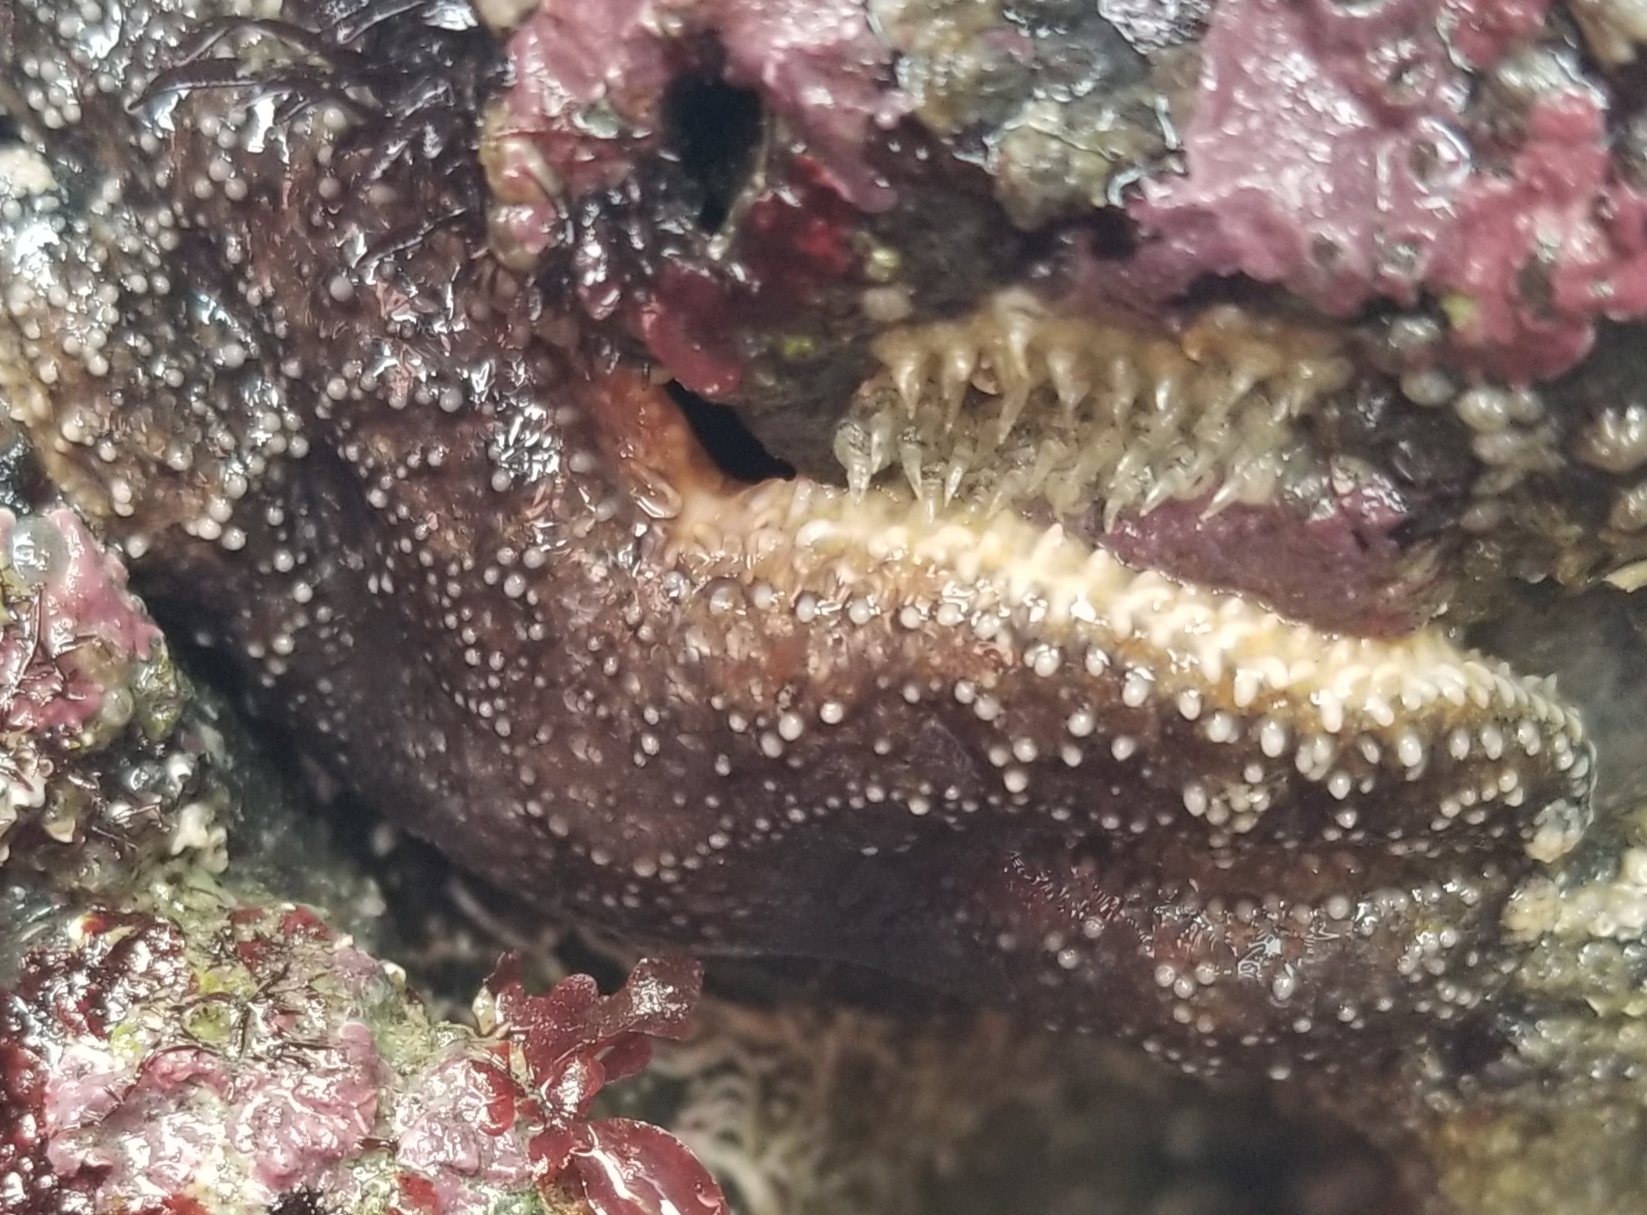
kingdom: Animalia
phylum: Echinodermata
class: Asteroidea
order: Forcipulatida
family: Asteriidae
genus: Pisaster
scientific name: Pisaster ochraceus
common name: Ochre stars
